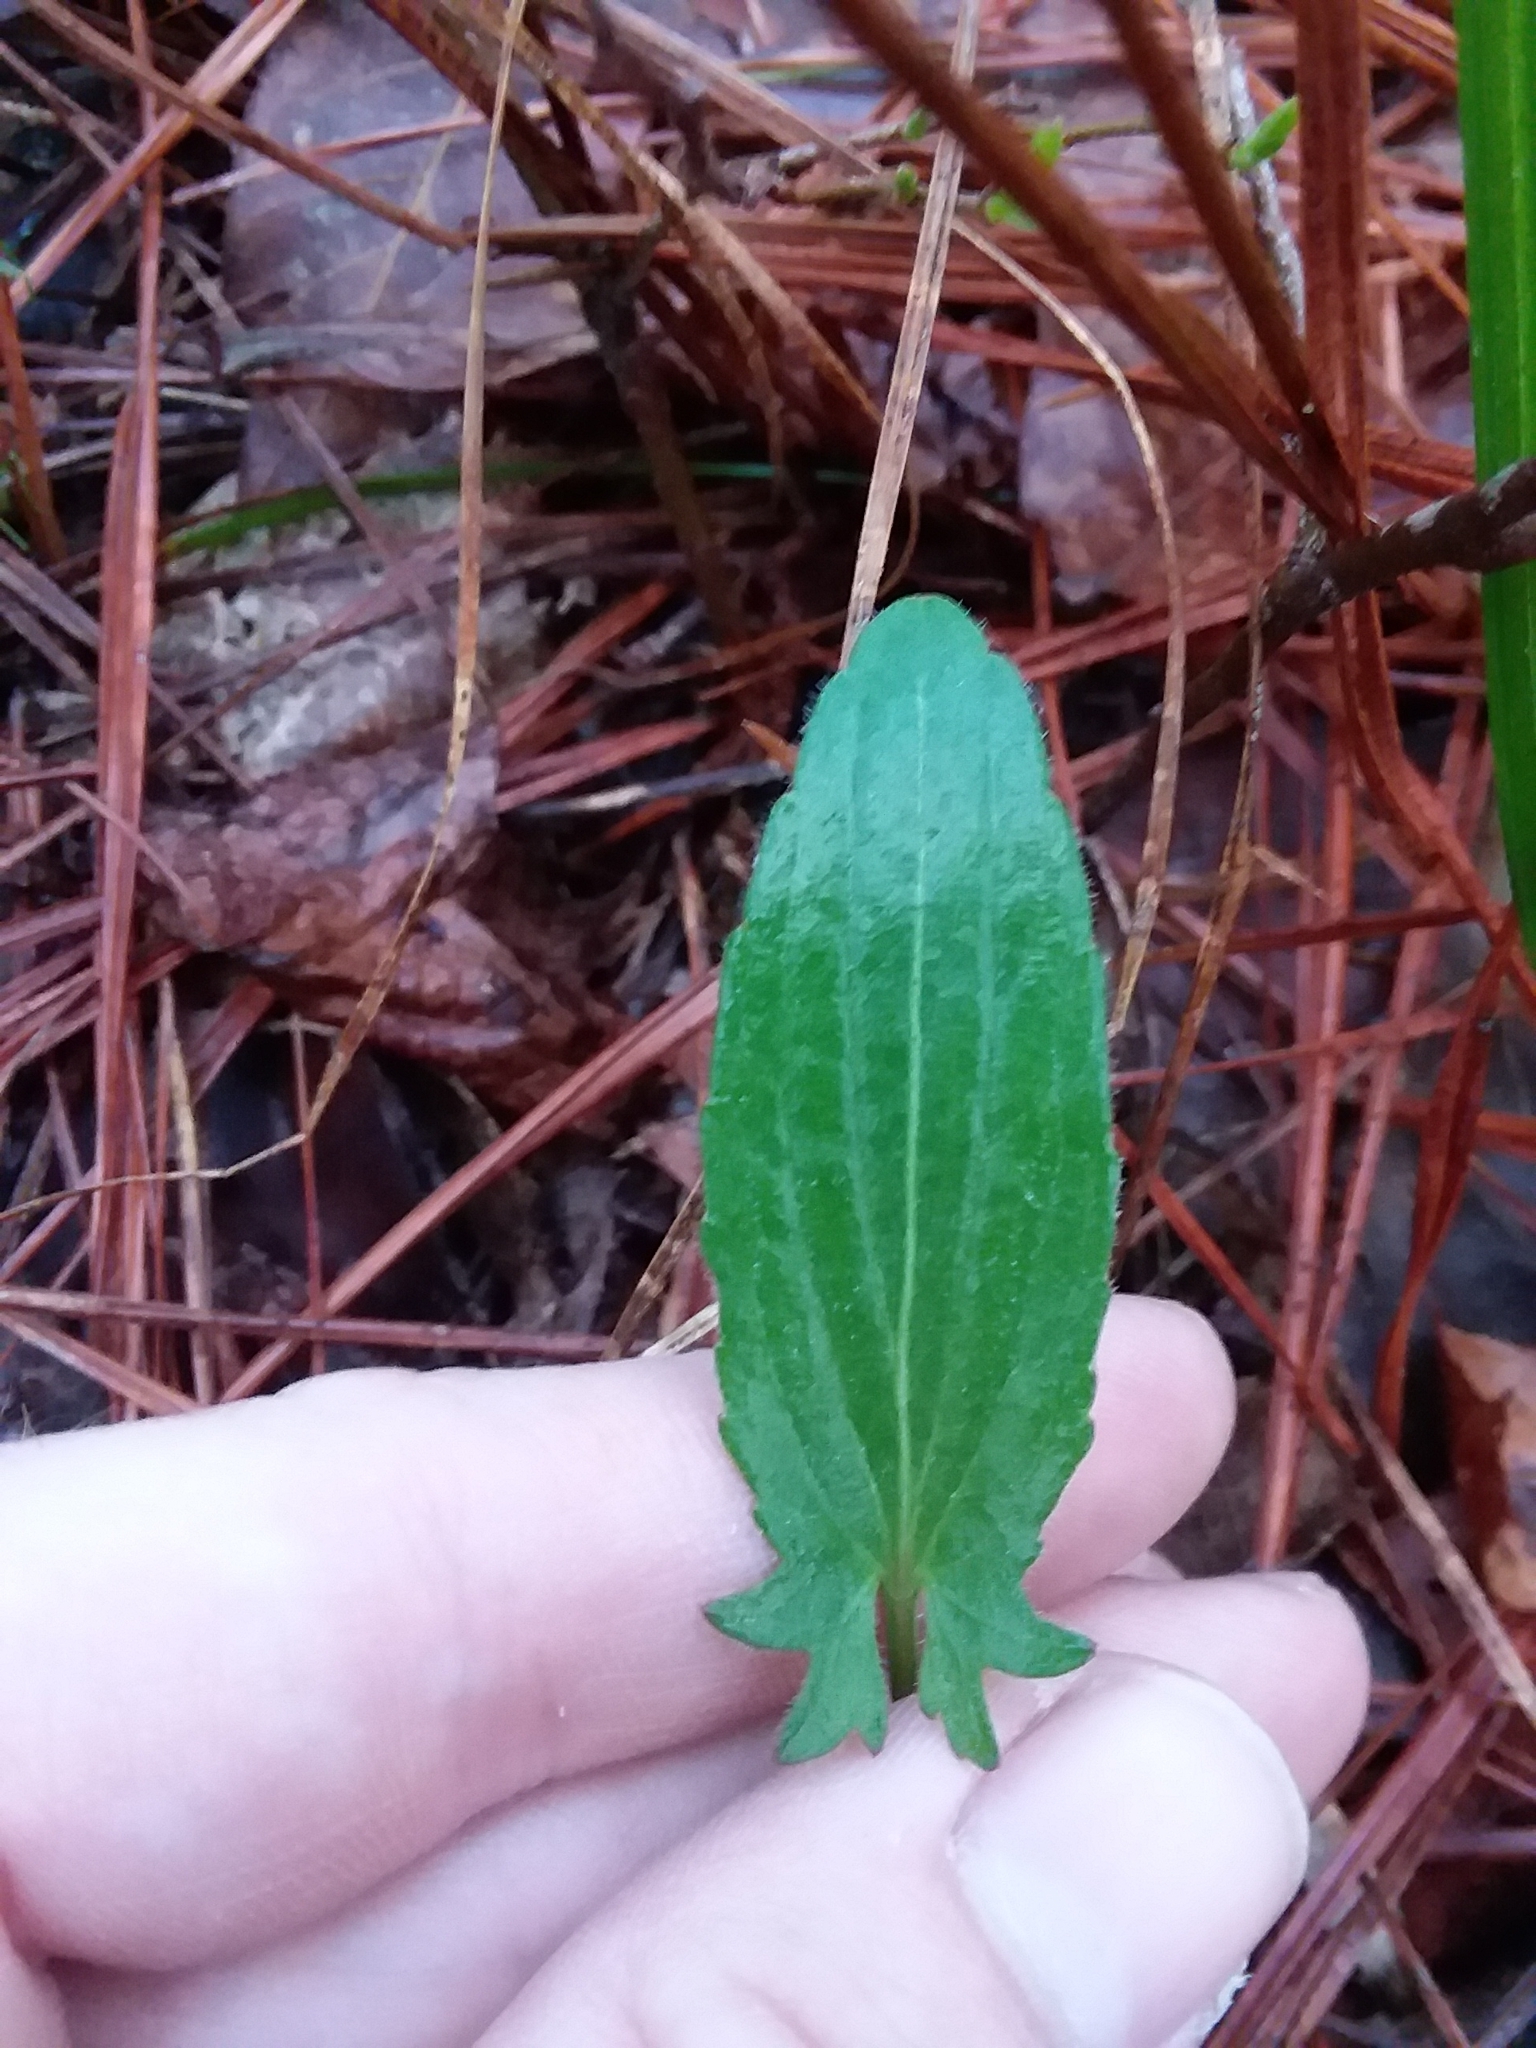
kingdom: Plantae
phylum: Tracheophyta
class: Magnoliopsida
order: Malpighiales
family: Violaceae
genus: Viola
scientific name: Viola sagittata
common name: Arrowhead violet
